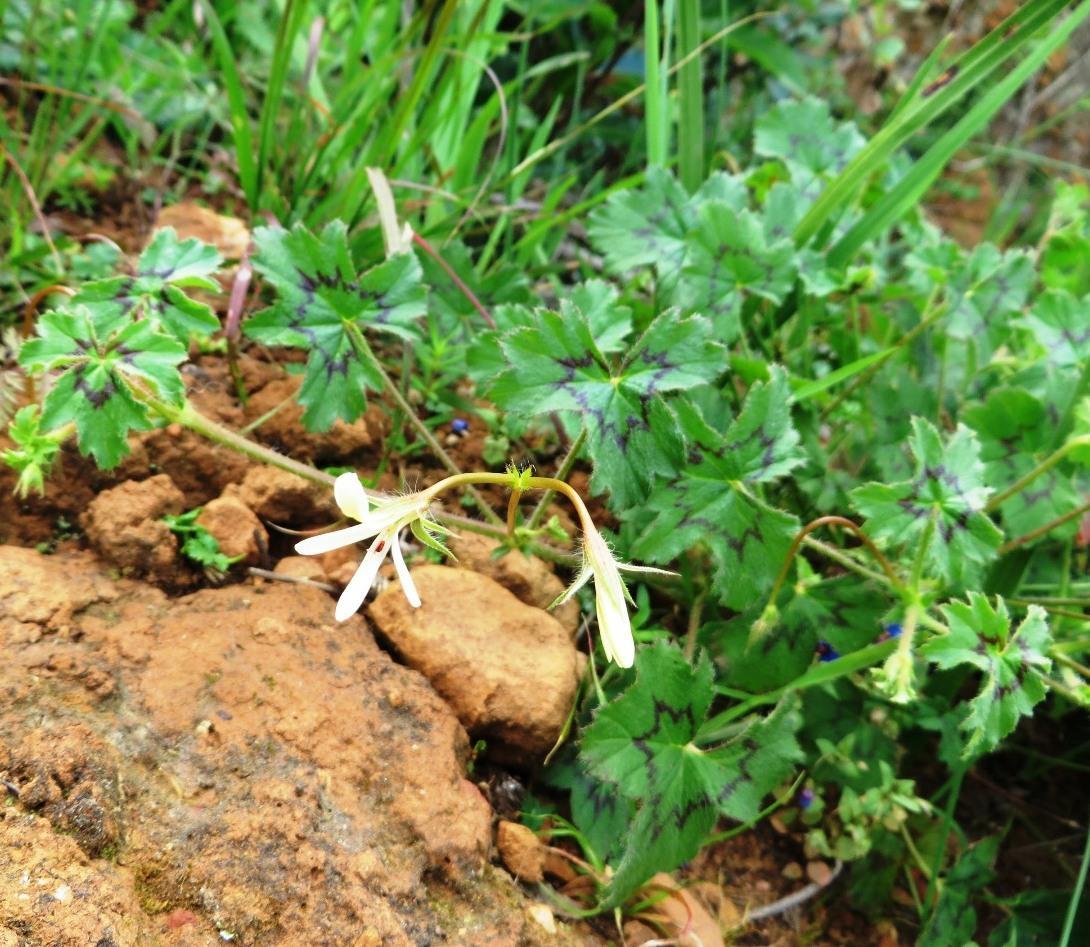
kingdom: Plantae
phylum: Tracheophyta
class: Magnoliopsida
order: Geraniales
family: Geraniaceae
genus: Pelargonium
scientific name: Pelargonium elongatum
